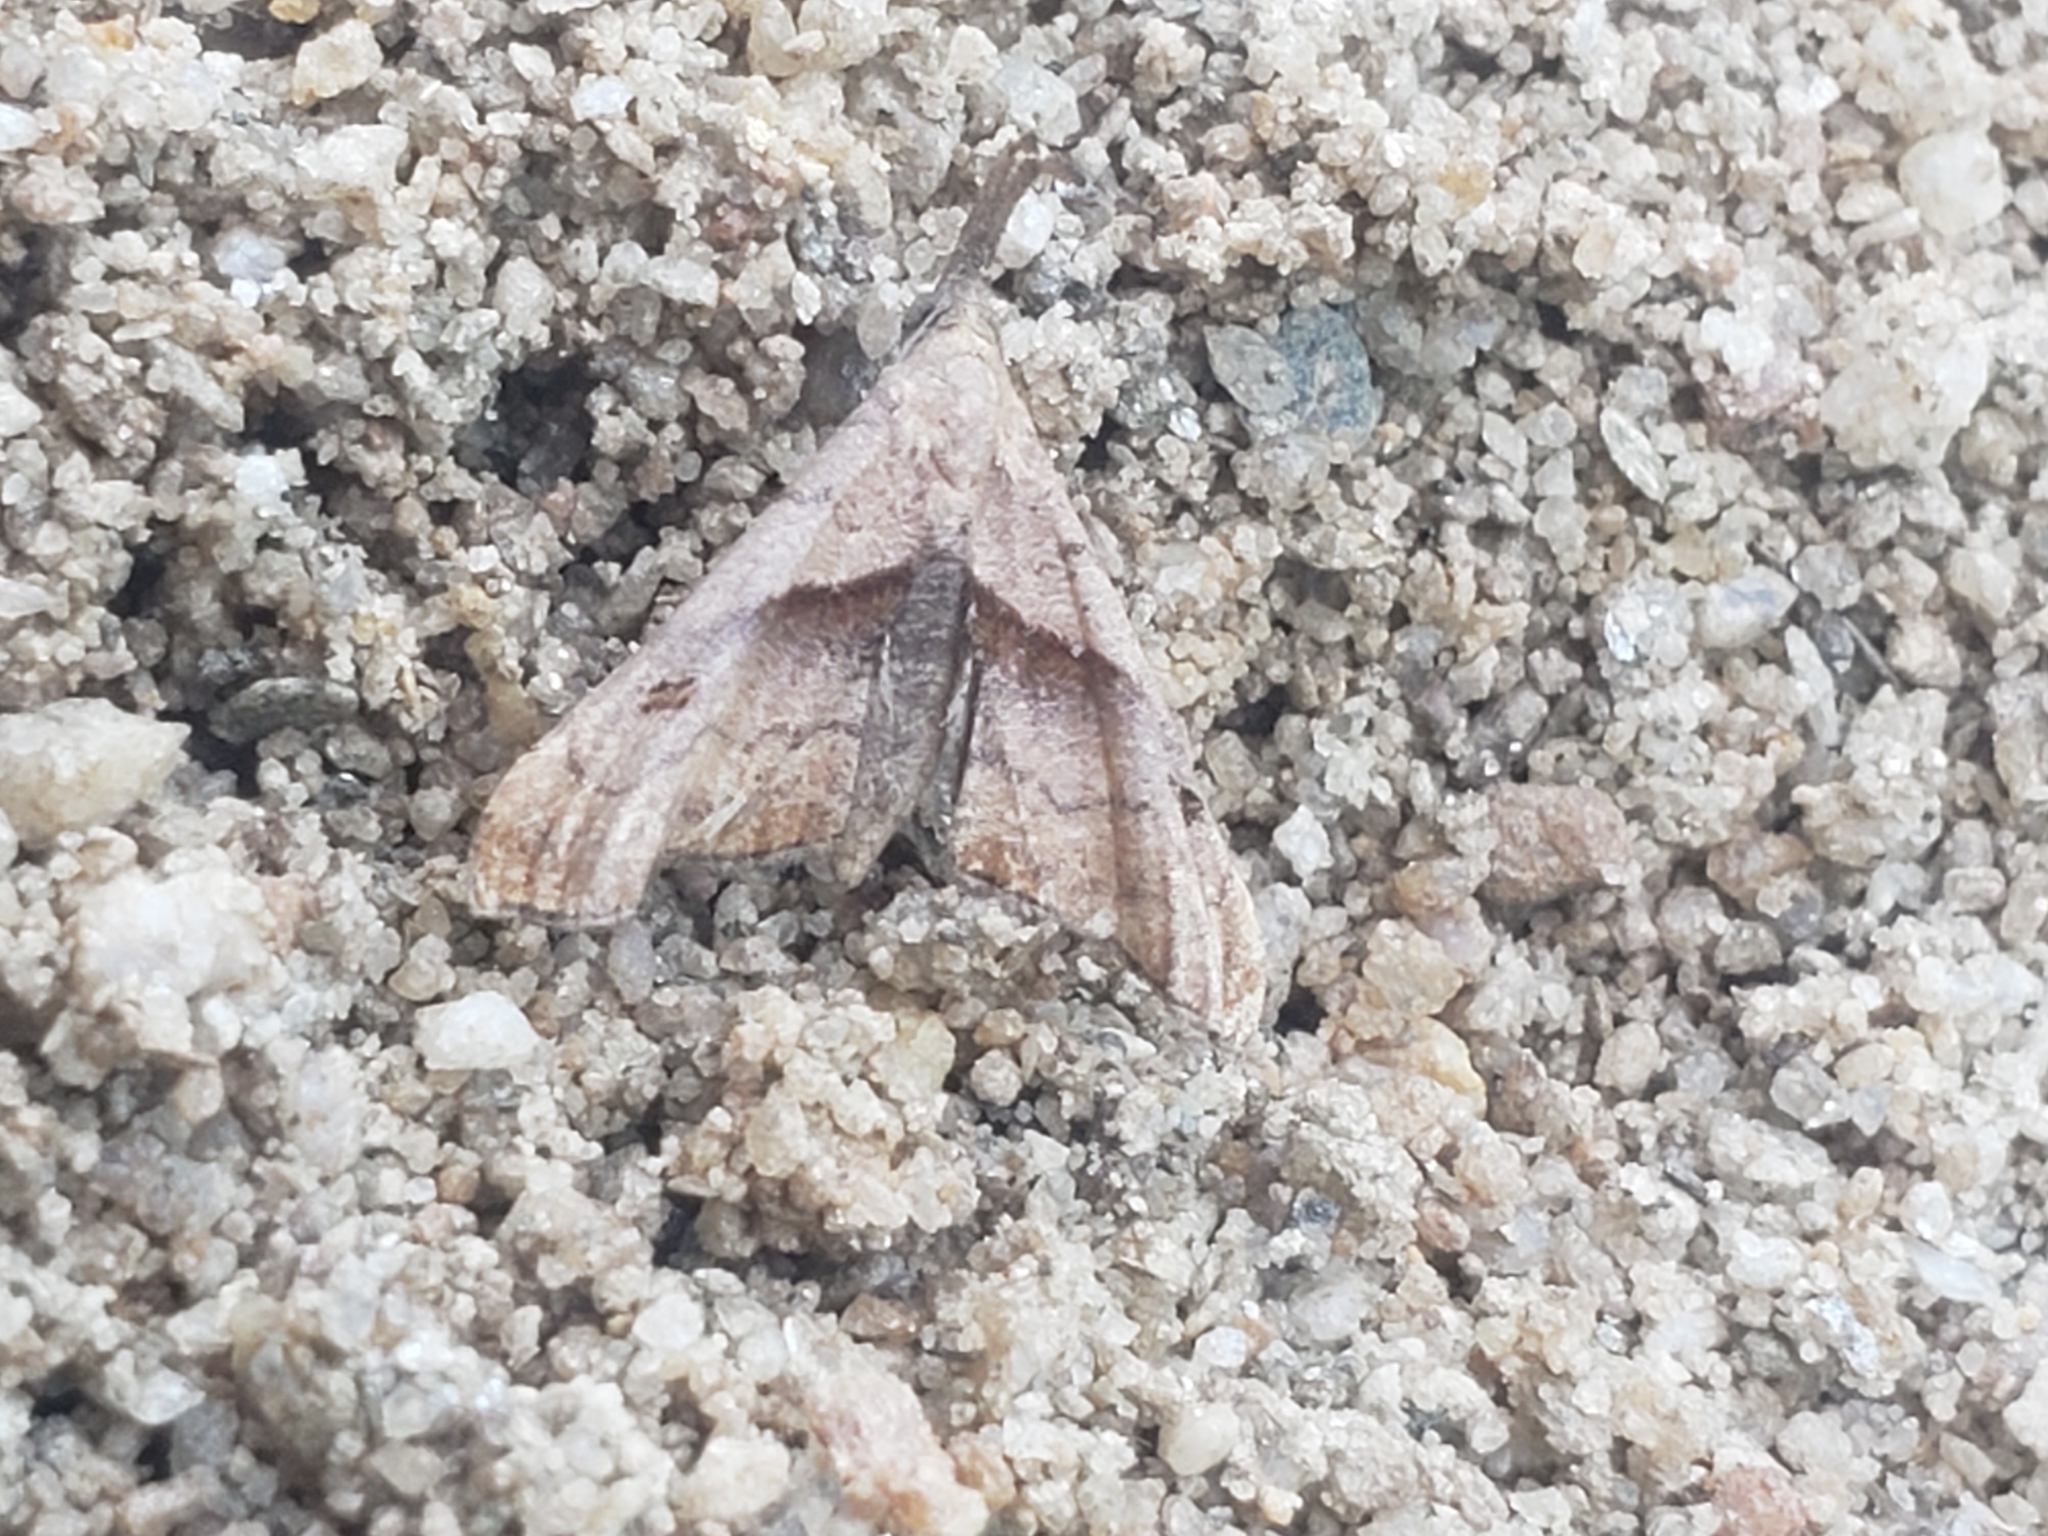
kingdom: Animalia
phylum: Arthropoda
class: Insecta
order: Lepidoptera
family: Erebidae
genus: Palthis
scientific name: Palthis angulalis
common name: Dark-spotted palthis moth
